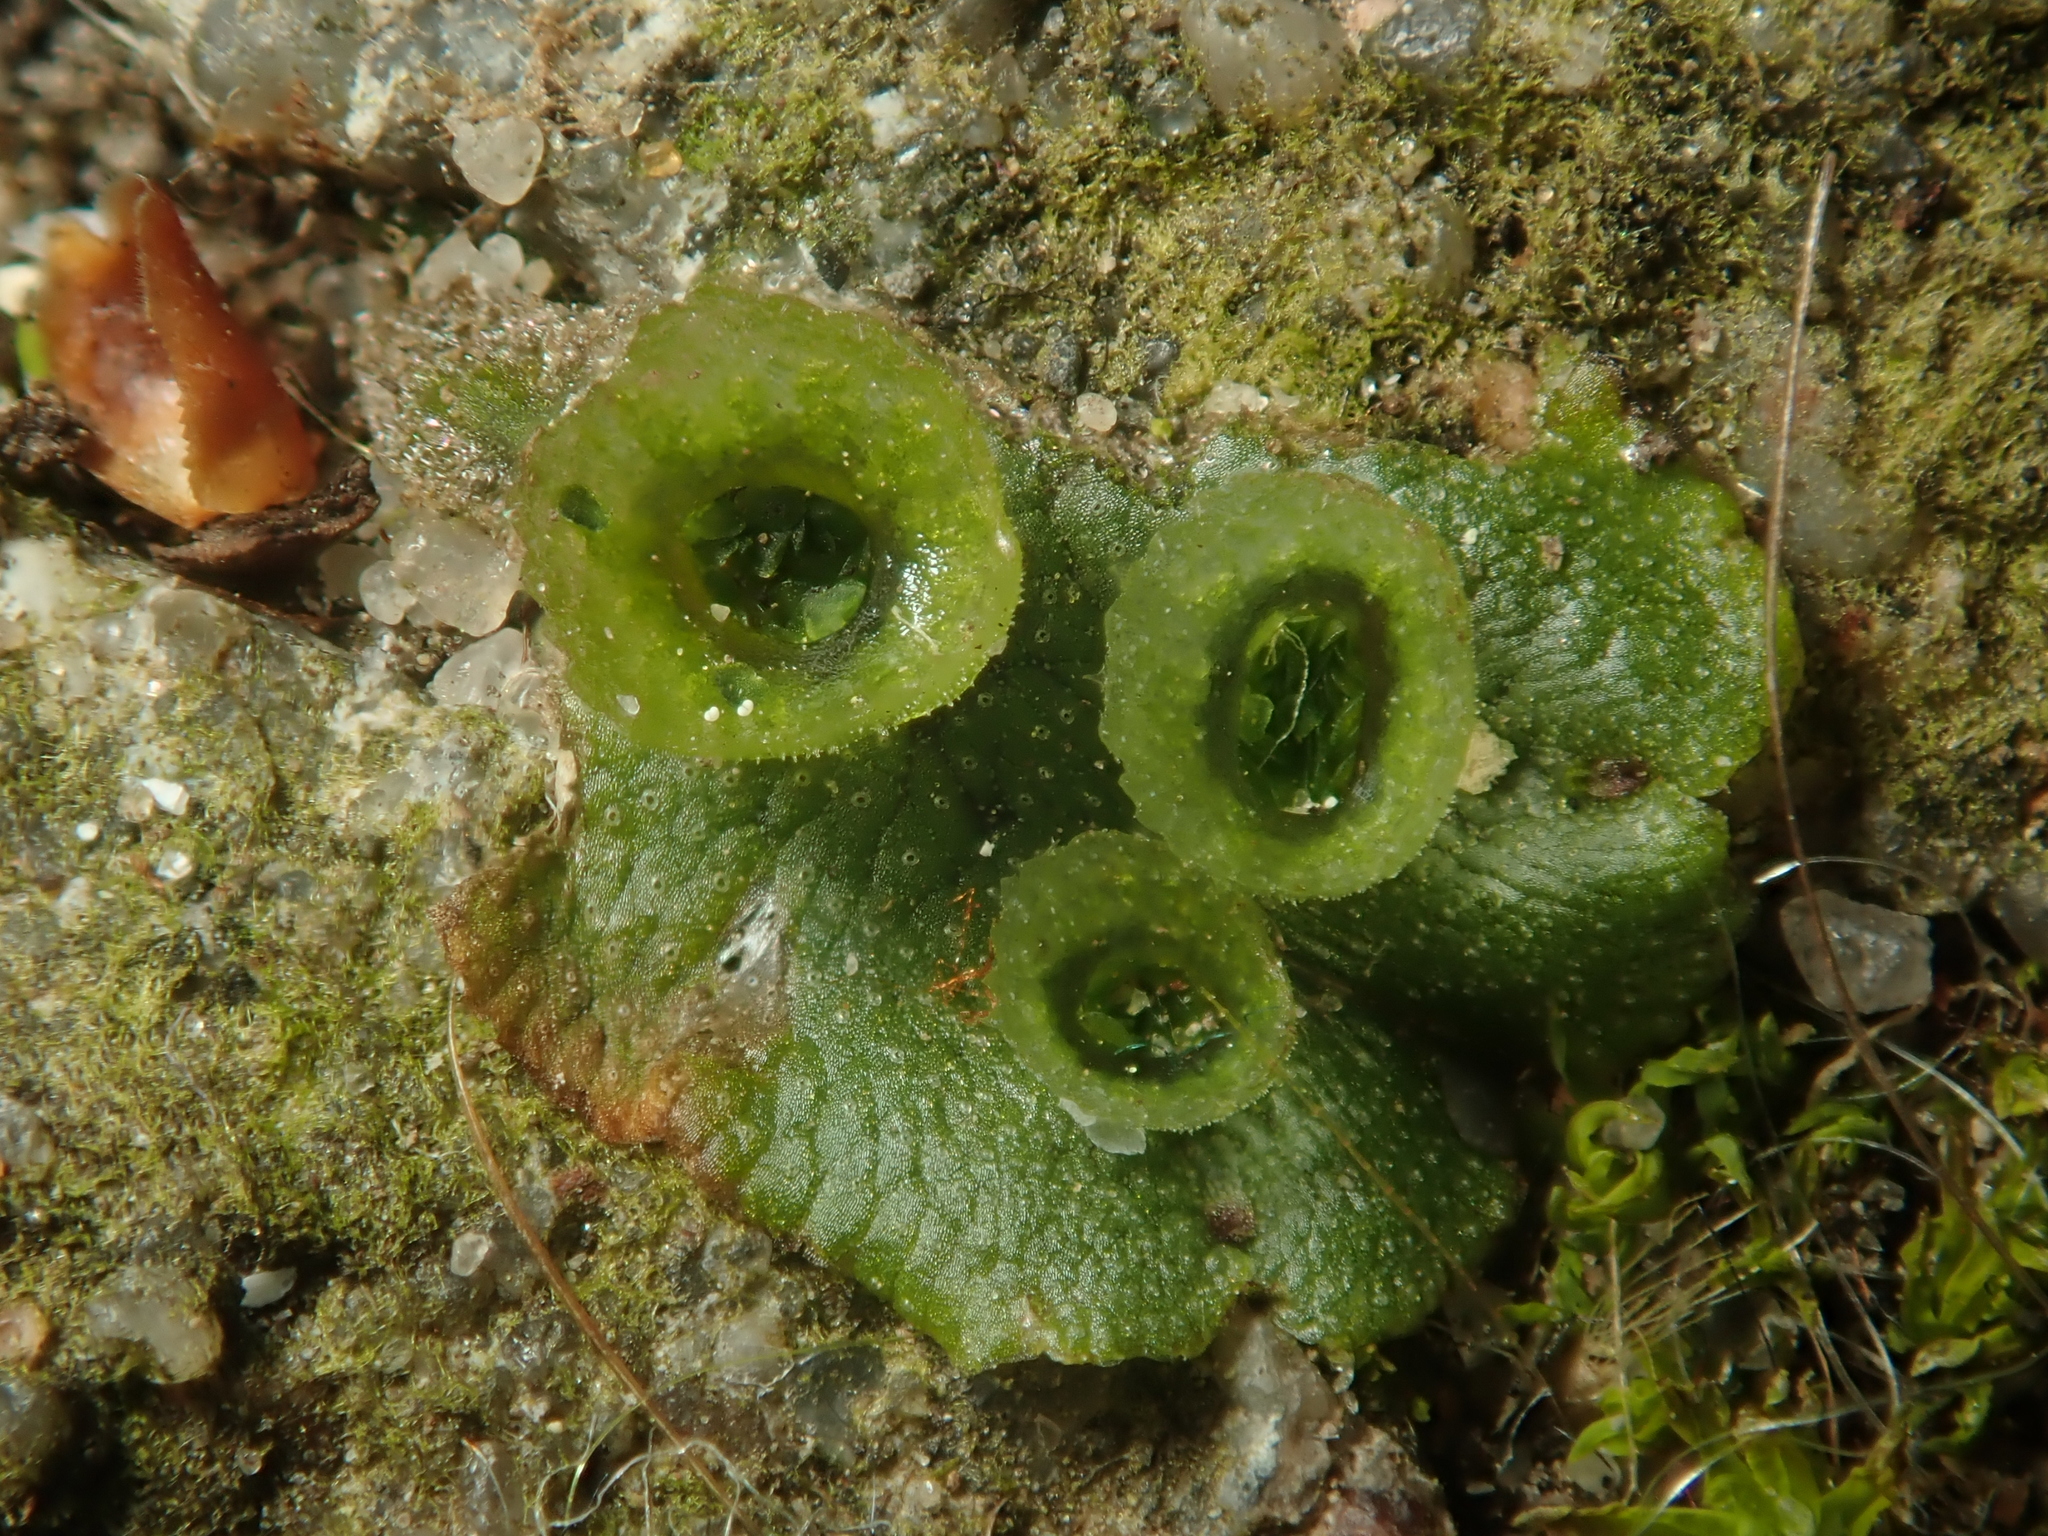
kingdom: Plantae
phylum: Marchantiophyta
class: Marchantiopsida
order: Marchantiales
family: Marchantiaceae
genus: Marchantia
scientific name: Marchantia polymorpha
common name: Common liverwort
